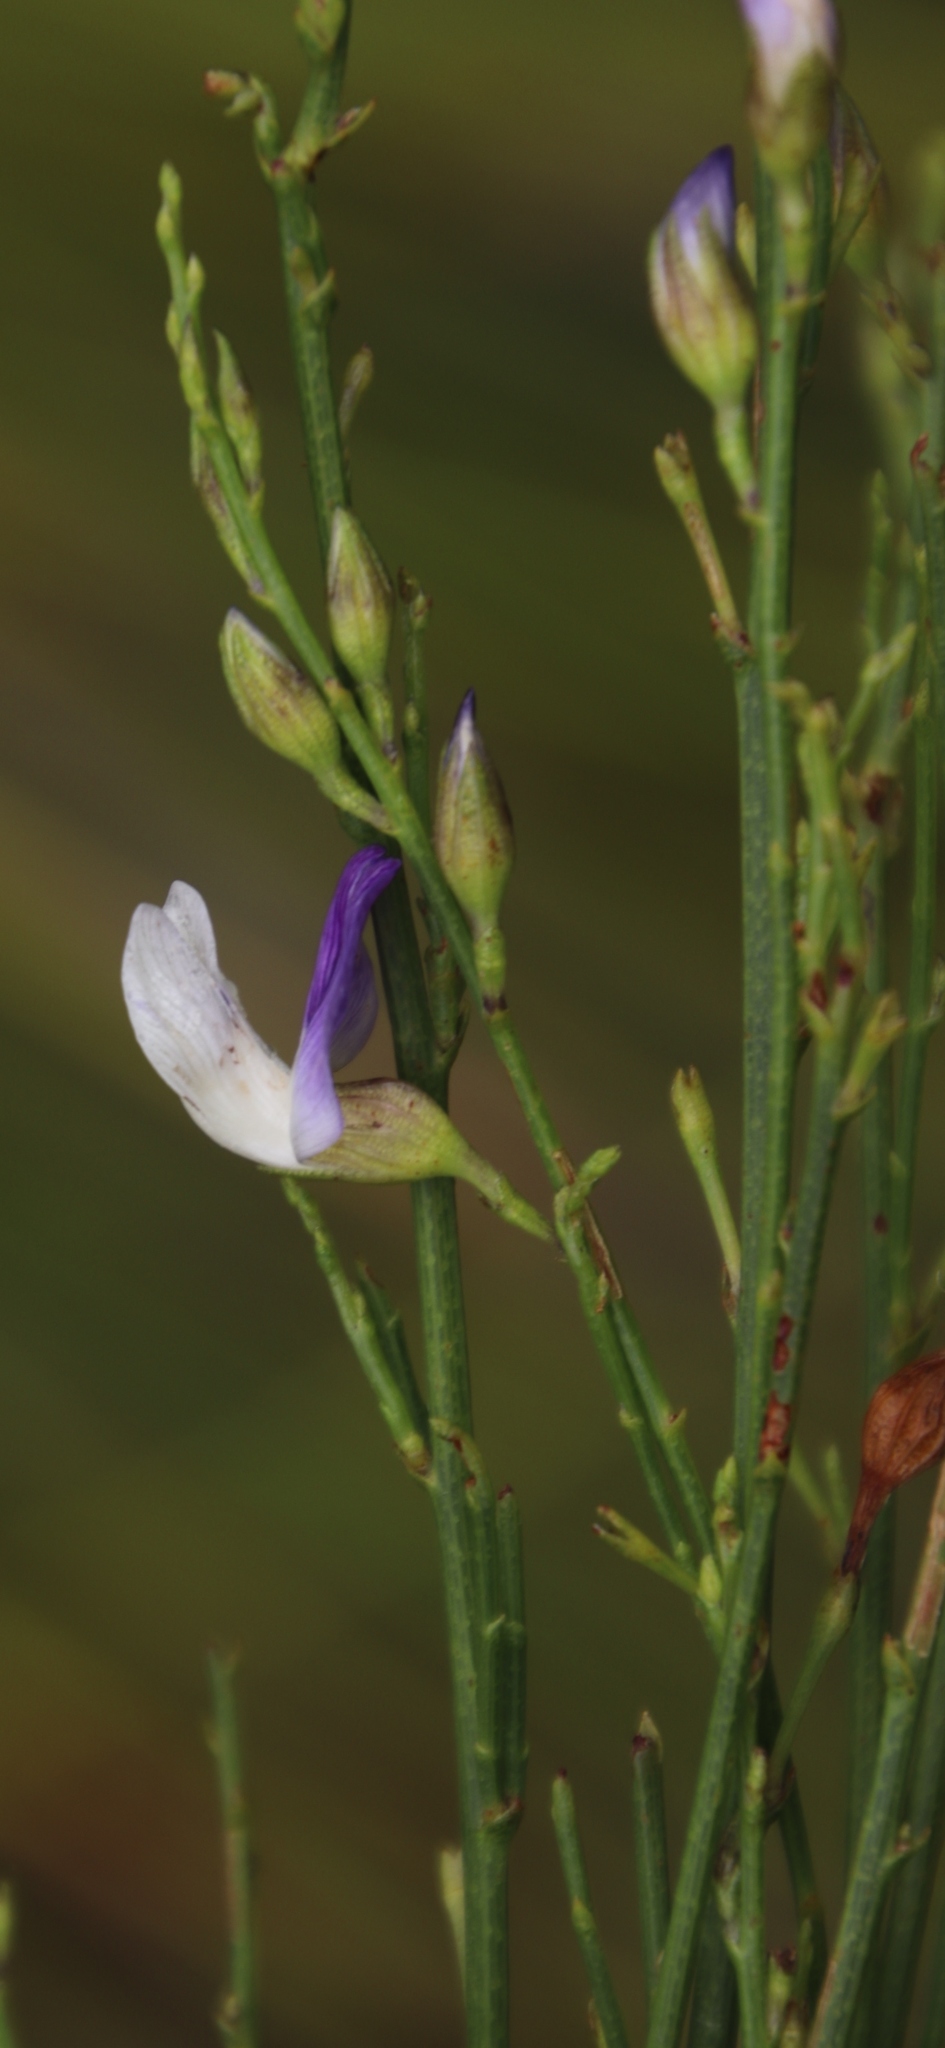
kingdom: Plantae
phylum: Tracheophyta
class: Magnoliopsida
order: Fabales
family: Fabaceae
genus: Psoralea
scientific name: Psoralea usitata
